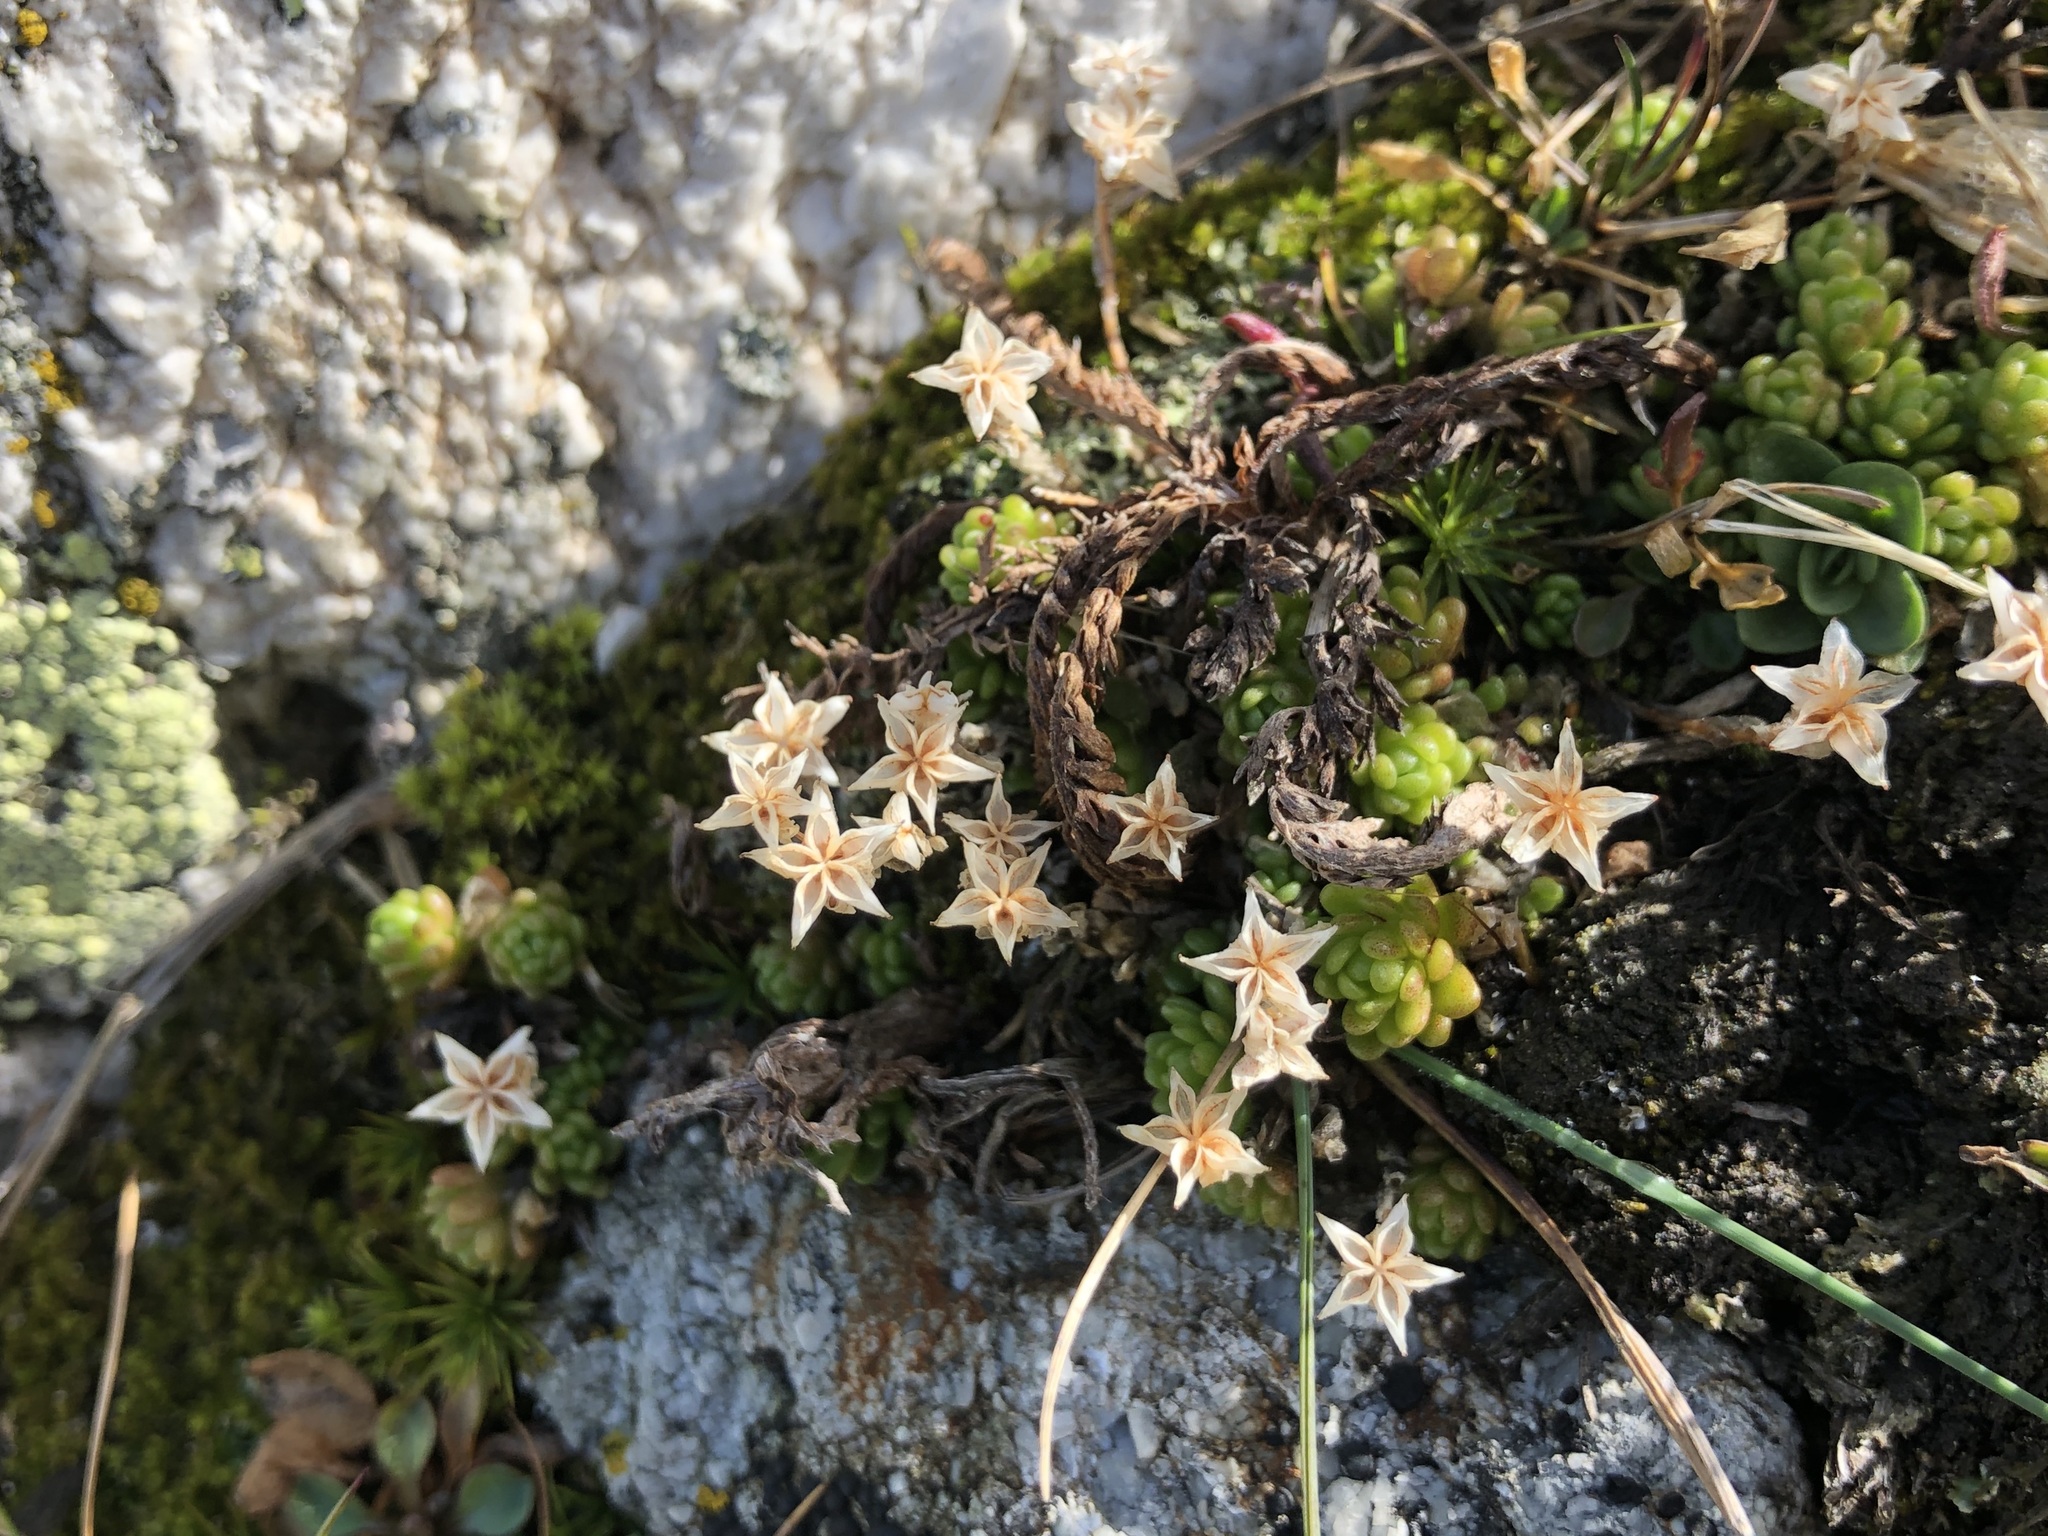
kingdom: Plantae
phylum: Tracheophyta
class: Magnoliopsida
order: Saxifragales
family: Crassulaceae
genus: Sedum
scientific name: Sedum alpestre
